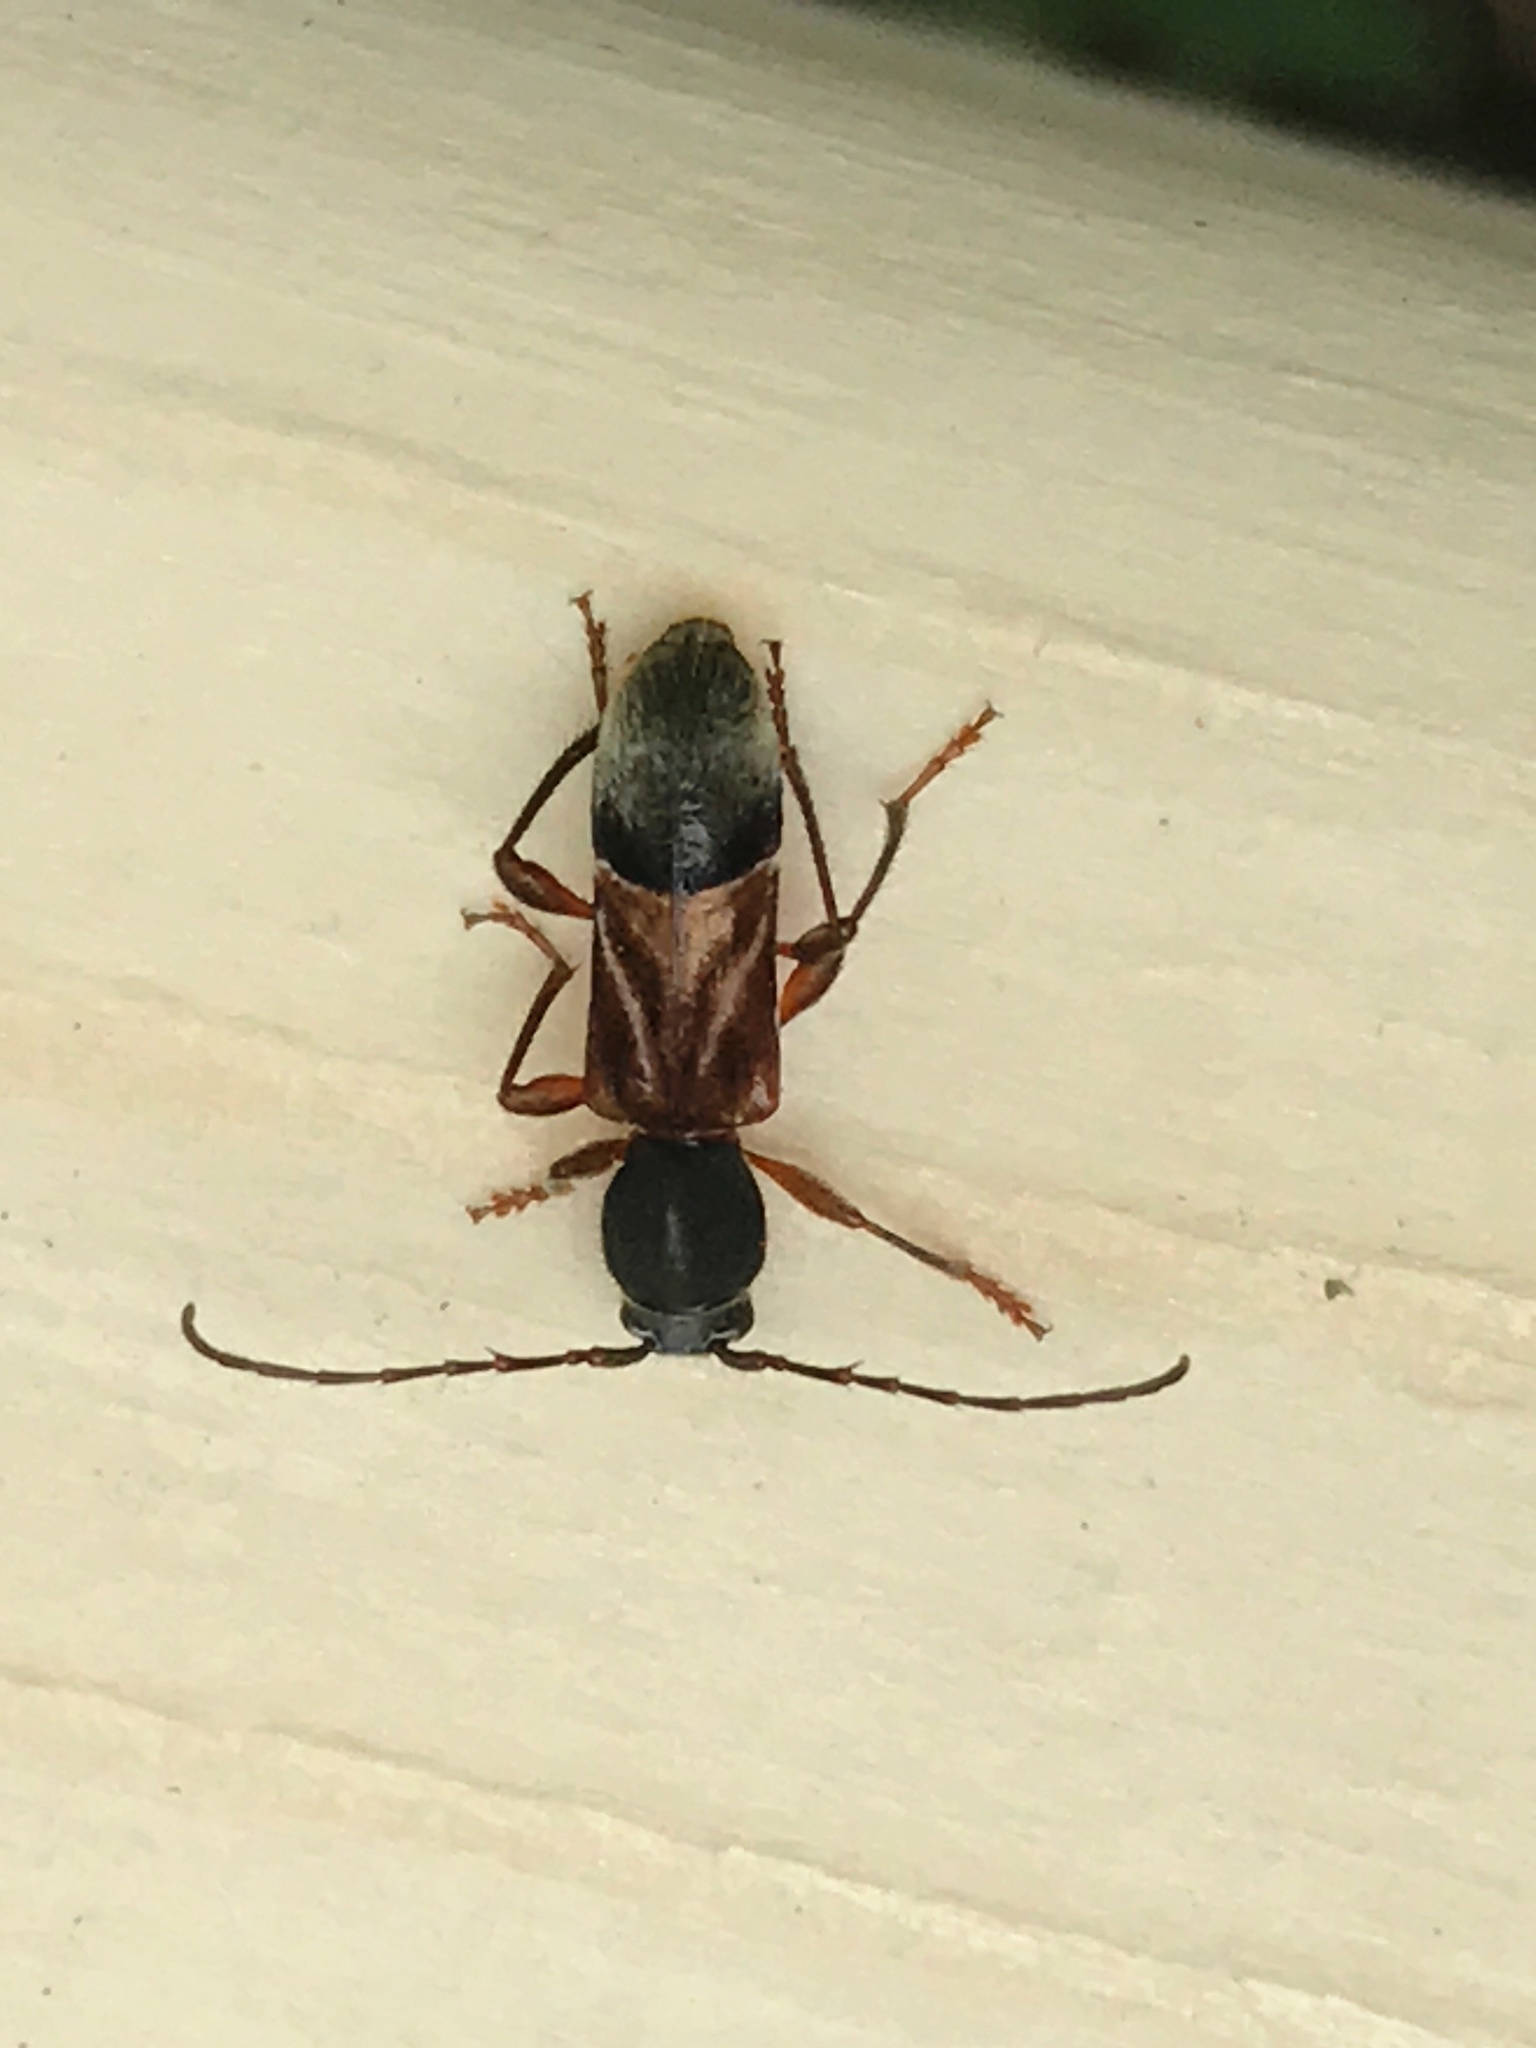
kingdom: Animalia
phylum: Arthropoda
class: Insecta
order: Coleoptera
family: Cerambycidae
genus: Cyrtophorus
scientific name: Cyrtophorus verrucosus
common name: Ant-like longhorn beetle
